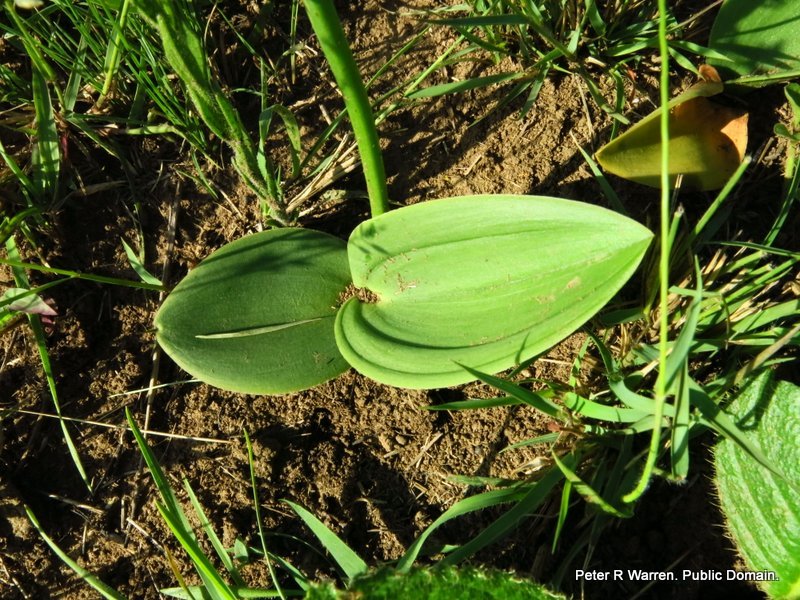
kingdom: Plantae
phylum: Tracheophyta
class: Liliopsida
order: Asparagales
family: Asparagaceae
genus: Eriospermum
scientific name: Eriospermum mackenii
